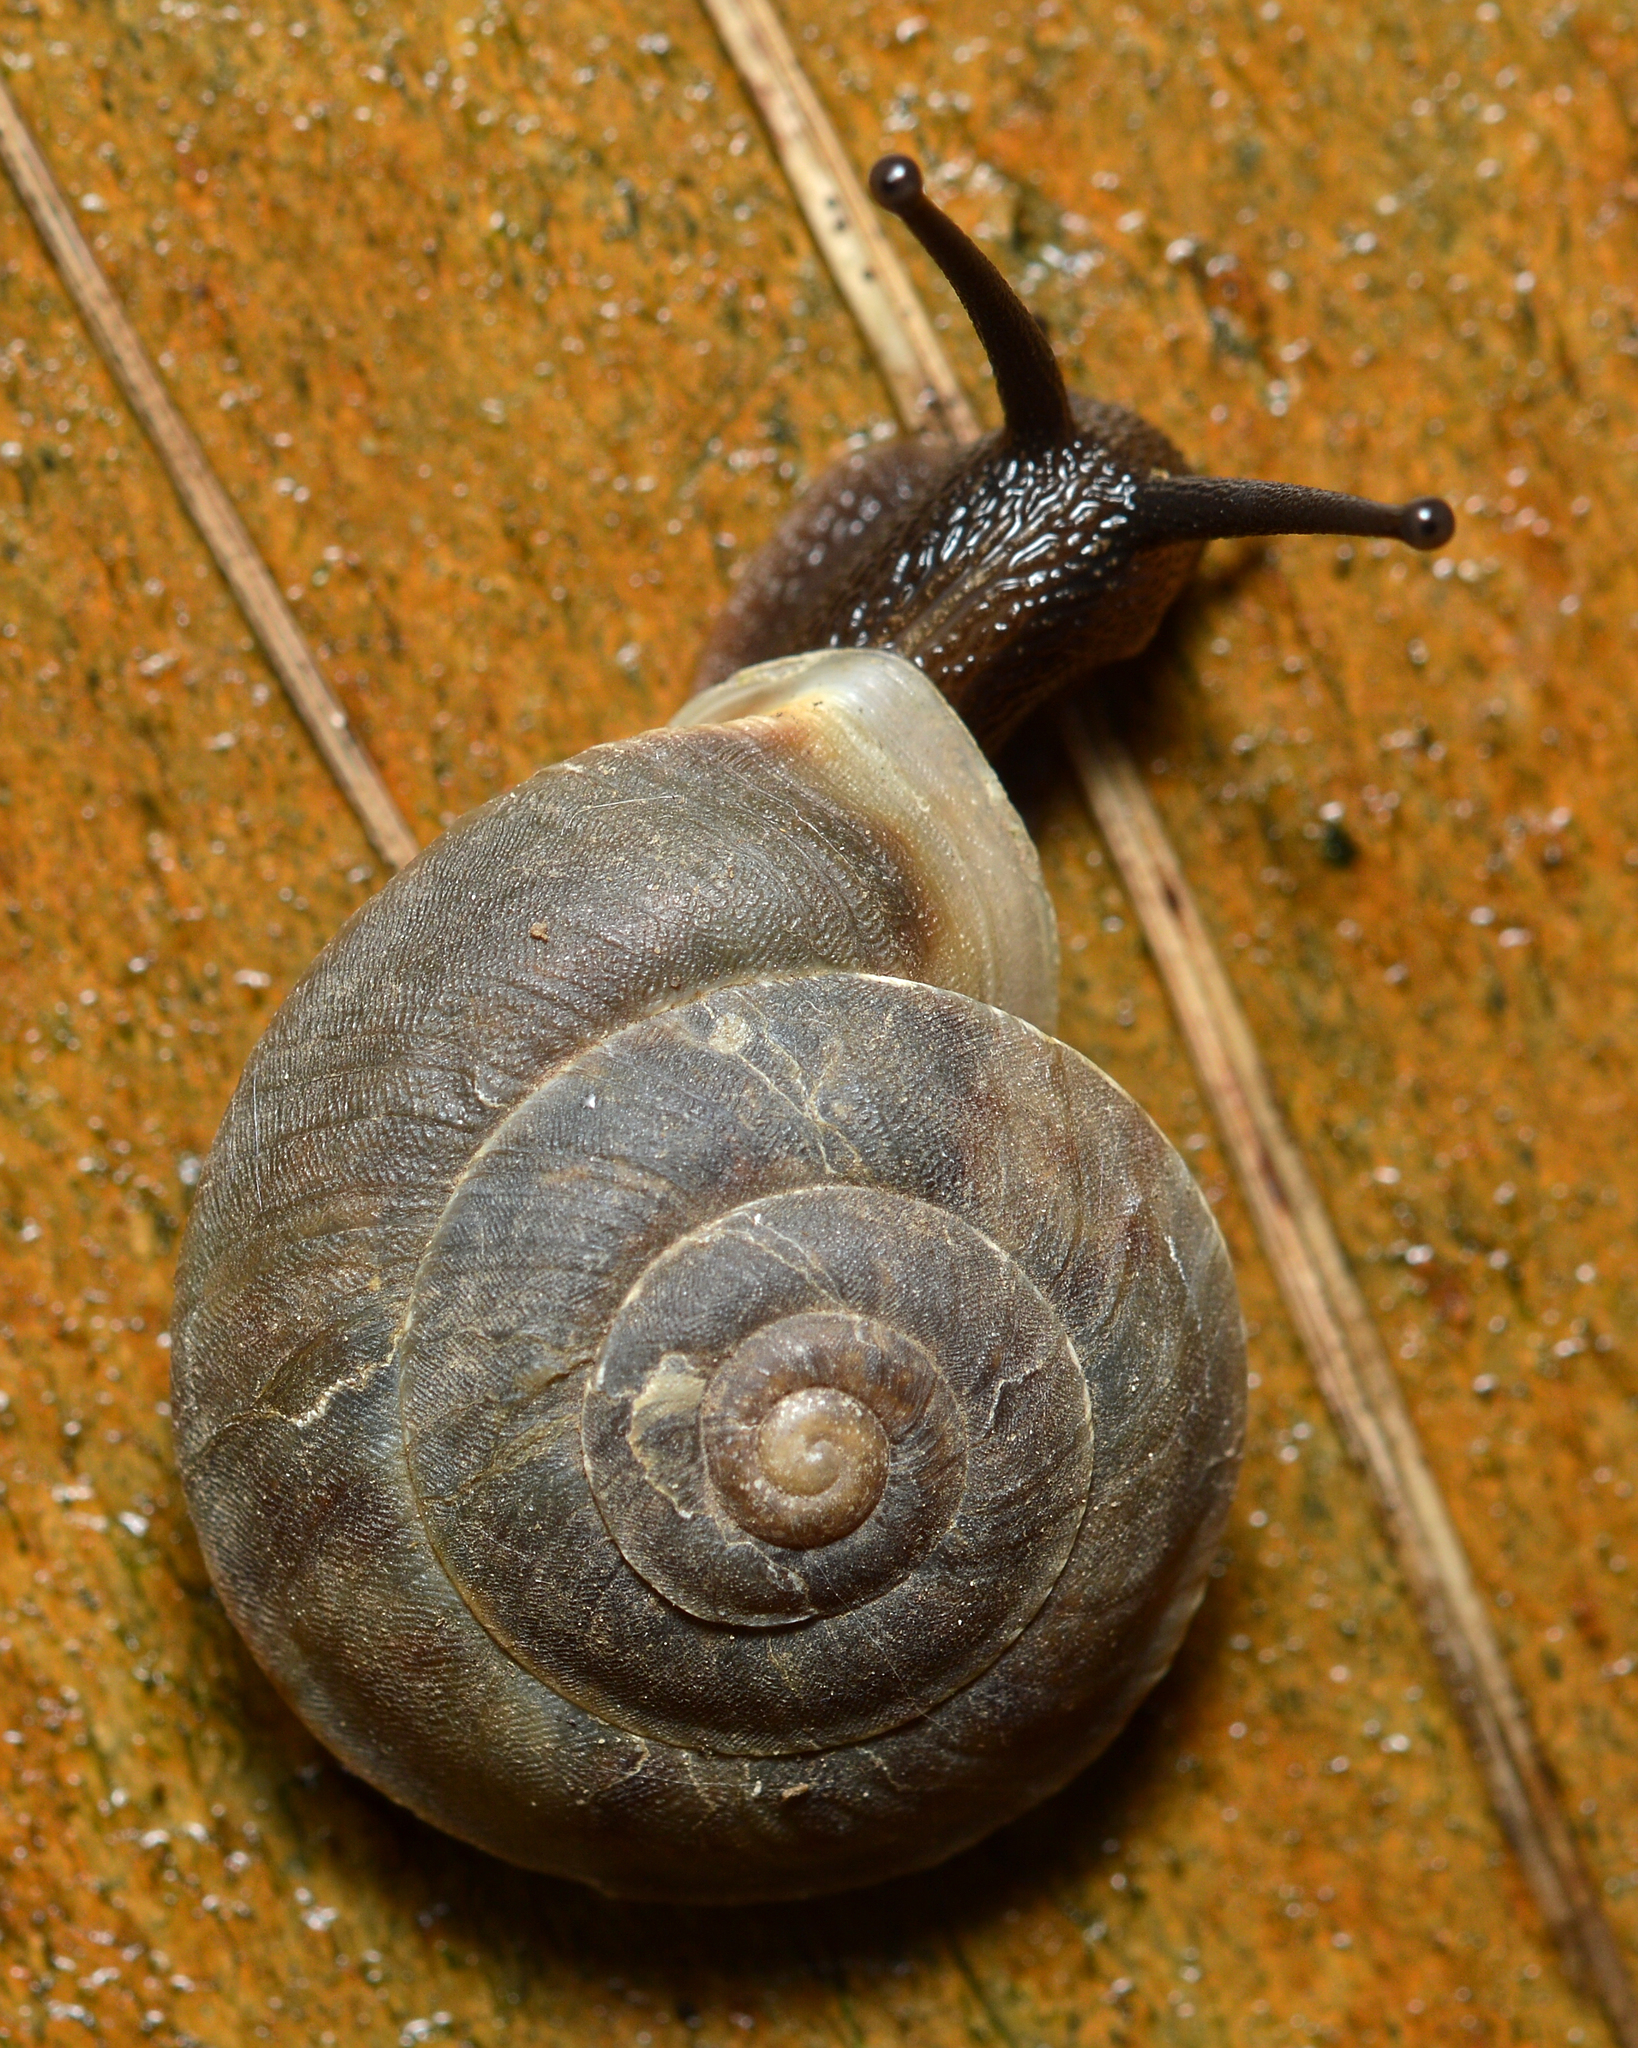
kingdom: Animalia
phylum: Mollusca
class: Gastropoda
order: Stylommatophora
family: Helicidae
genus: Helicigona
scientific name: Helicigona lapicida
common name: Lapidary snail
